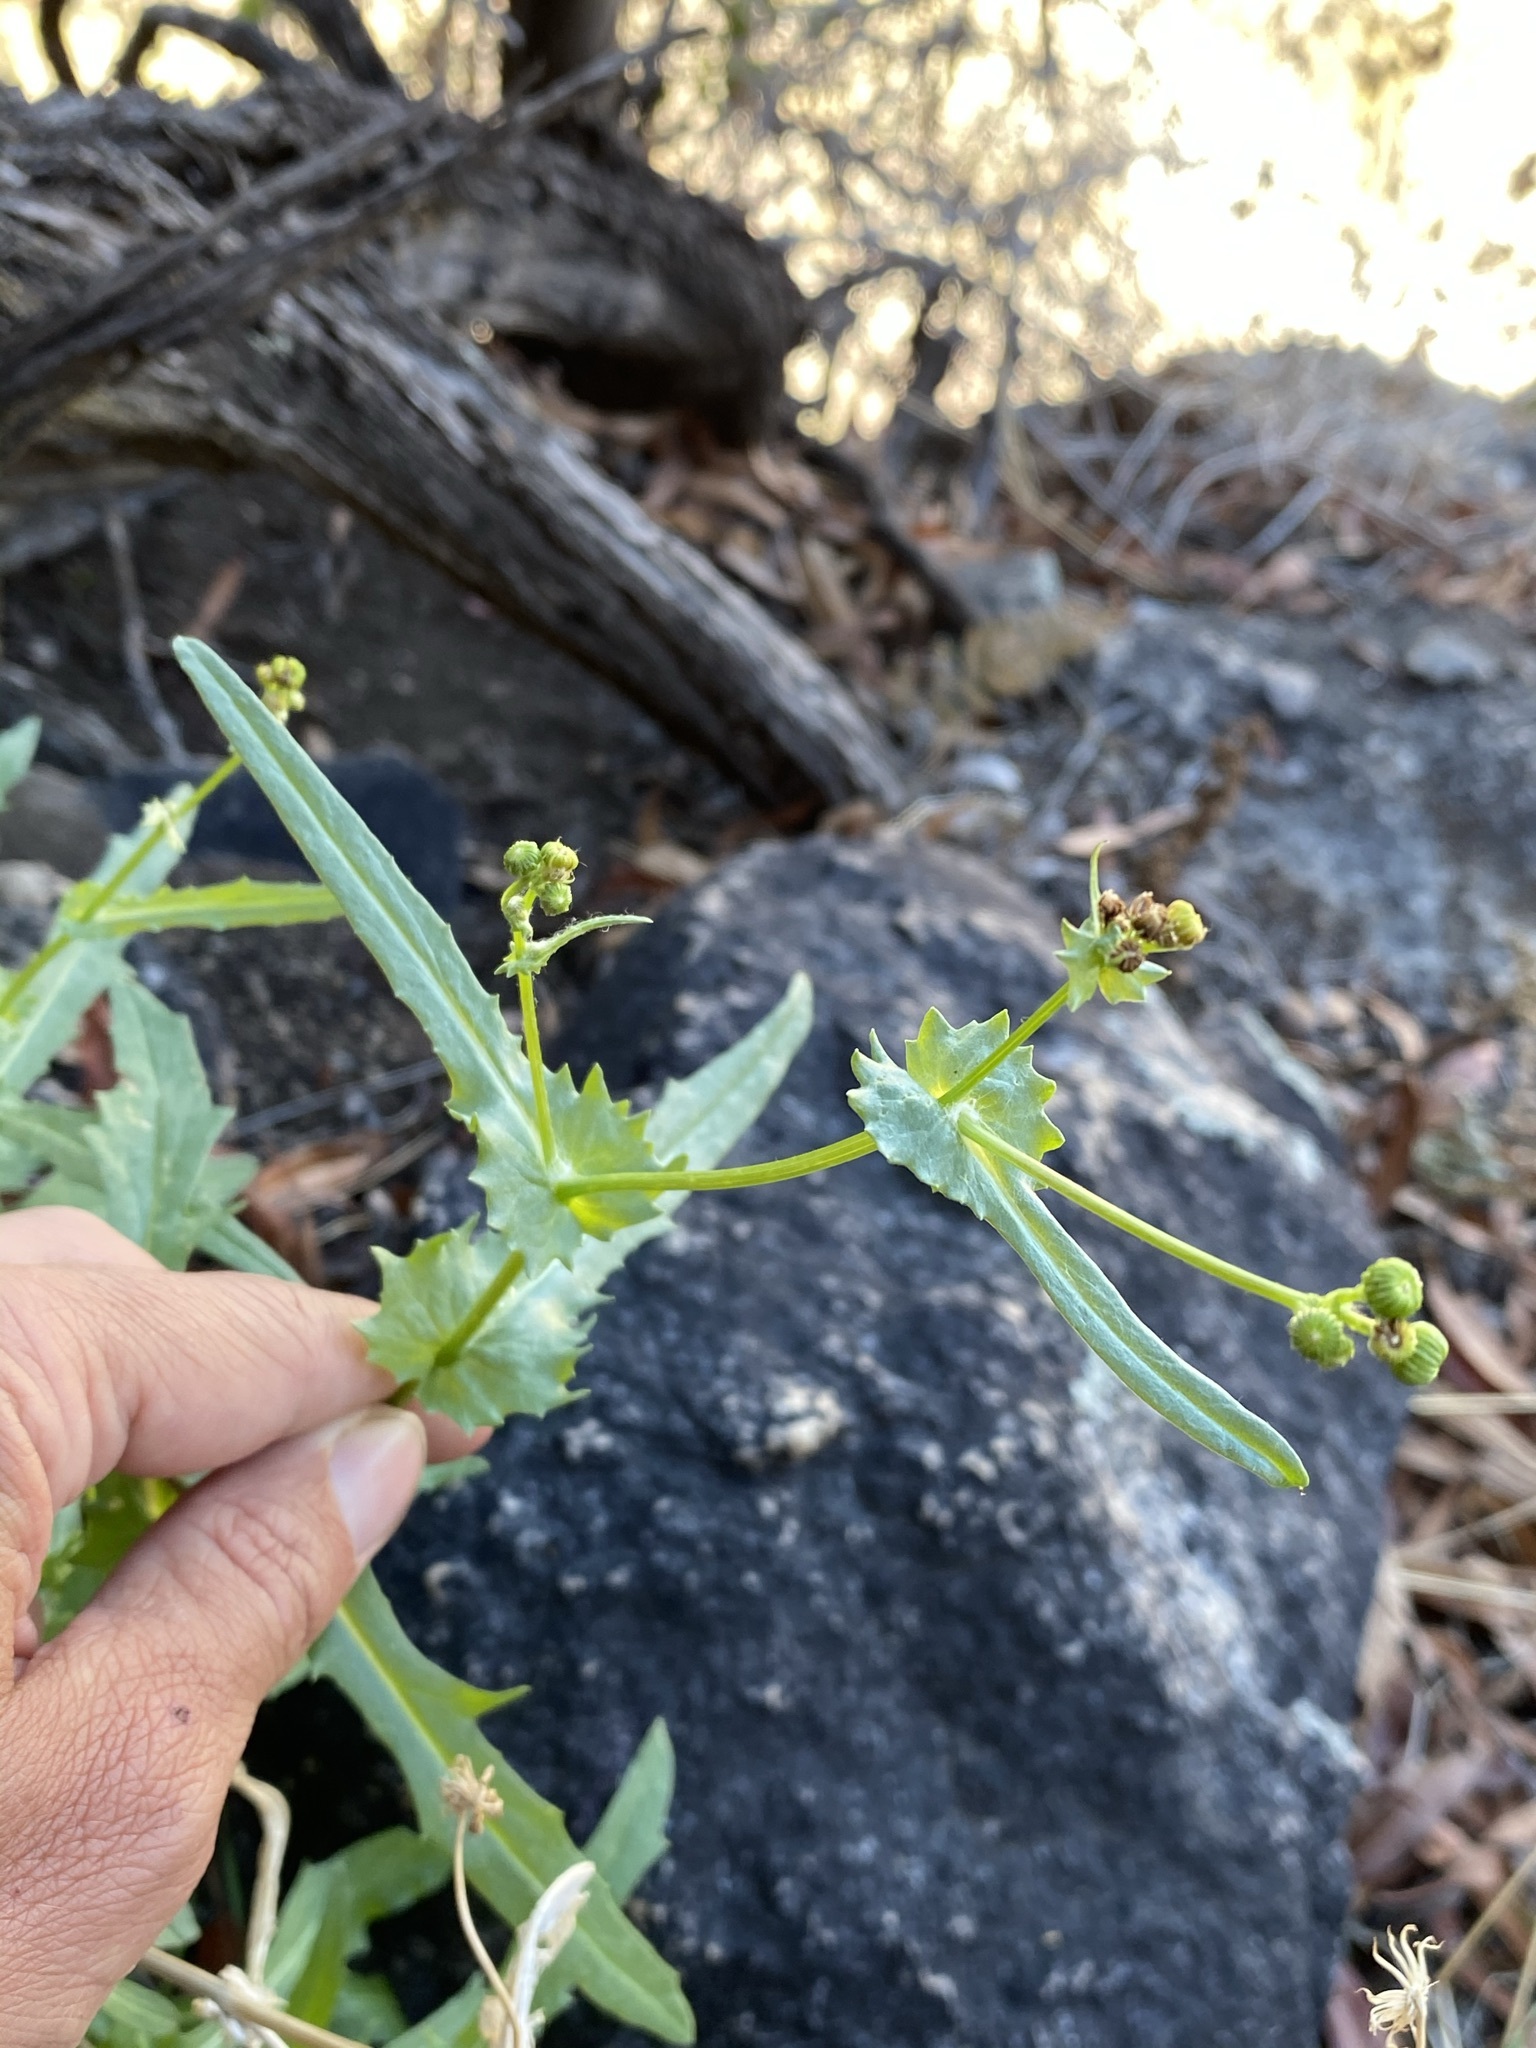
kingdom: Plantae
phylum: Tracheophyta
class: Magnoliopsida
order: Asterales
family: Asteraceae
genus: Senecio
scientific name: Senecio lemmonii
